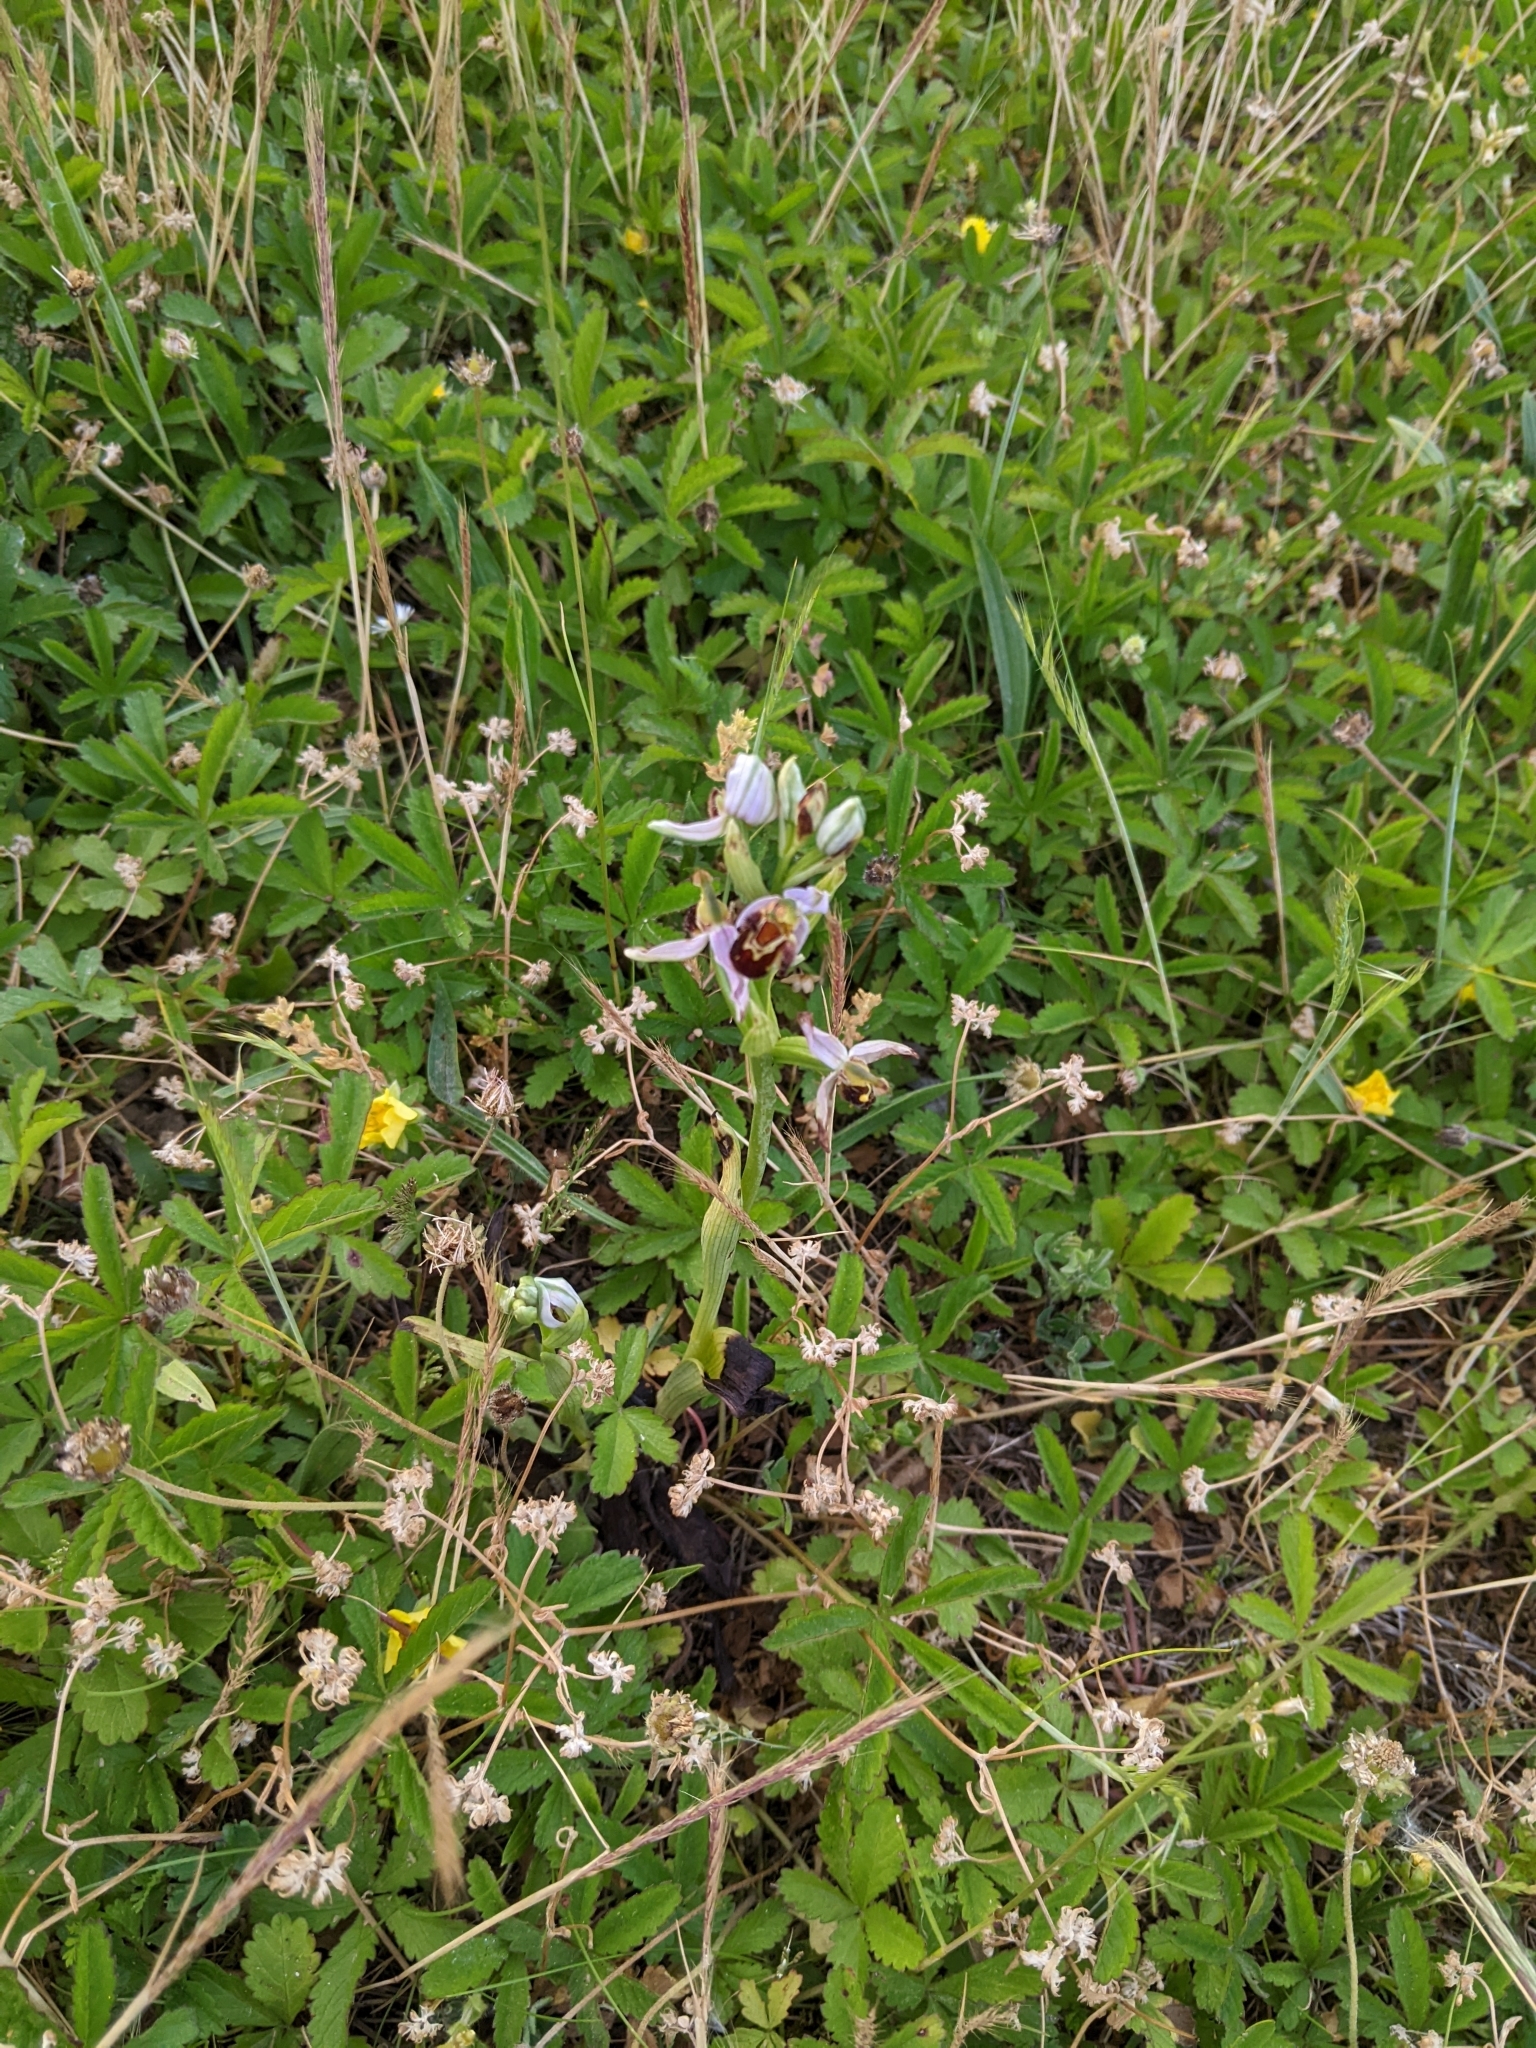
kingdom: Plantae
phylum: Tracheophyta
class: Liliopsida
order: Asparagales
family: Orchidaceae
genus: Ophrys
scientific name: Ophrys apifera
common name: Bee orchid
